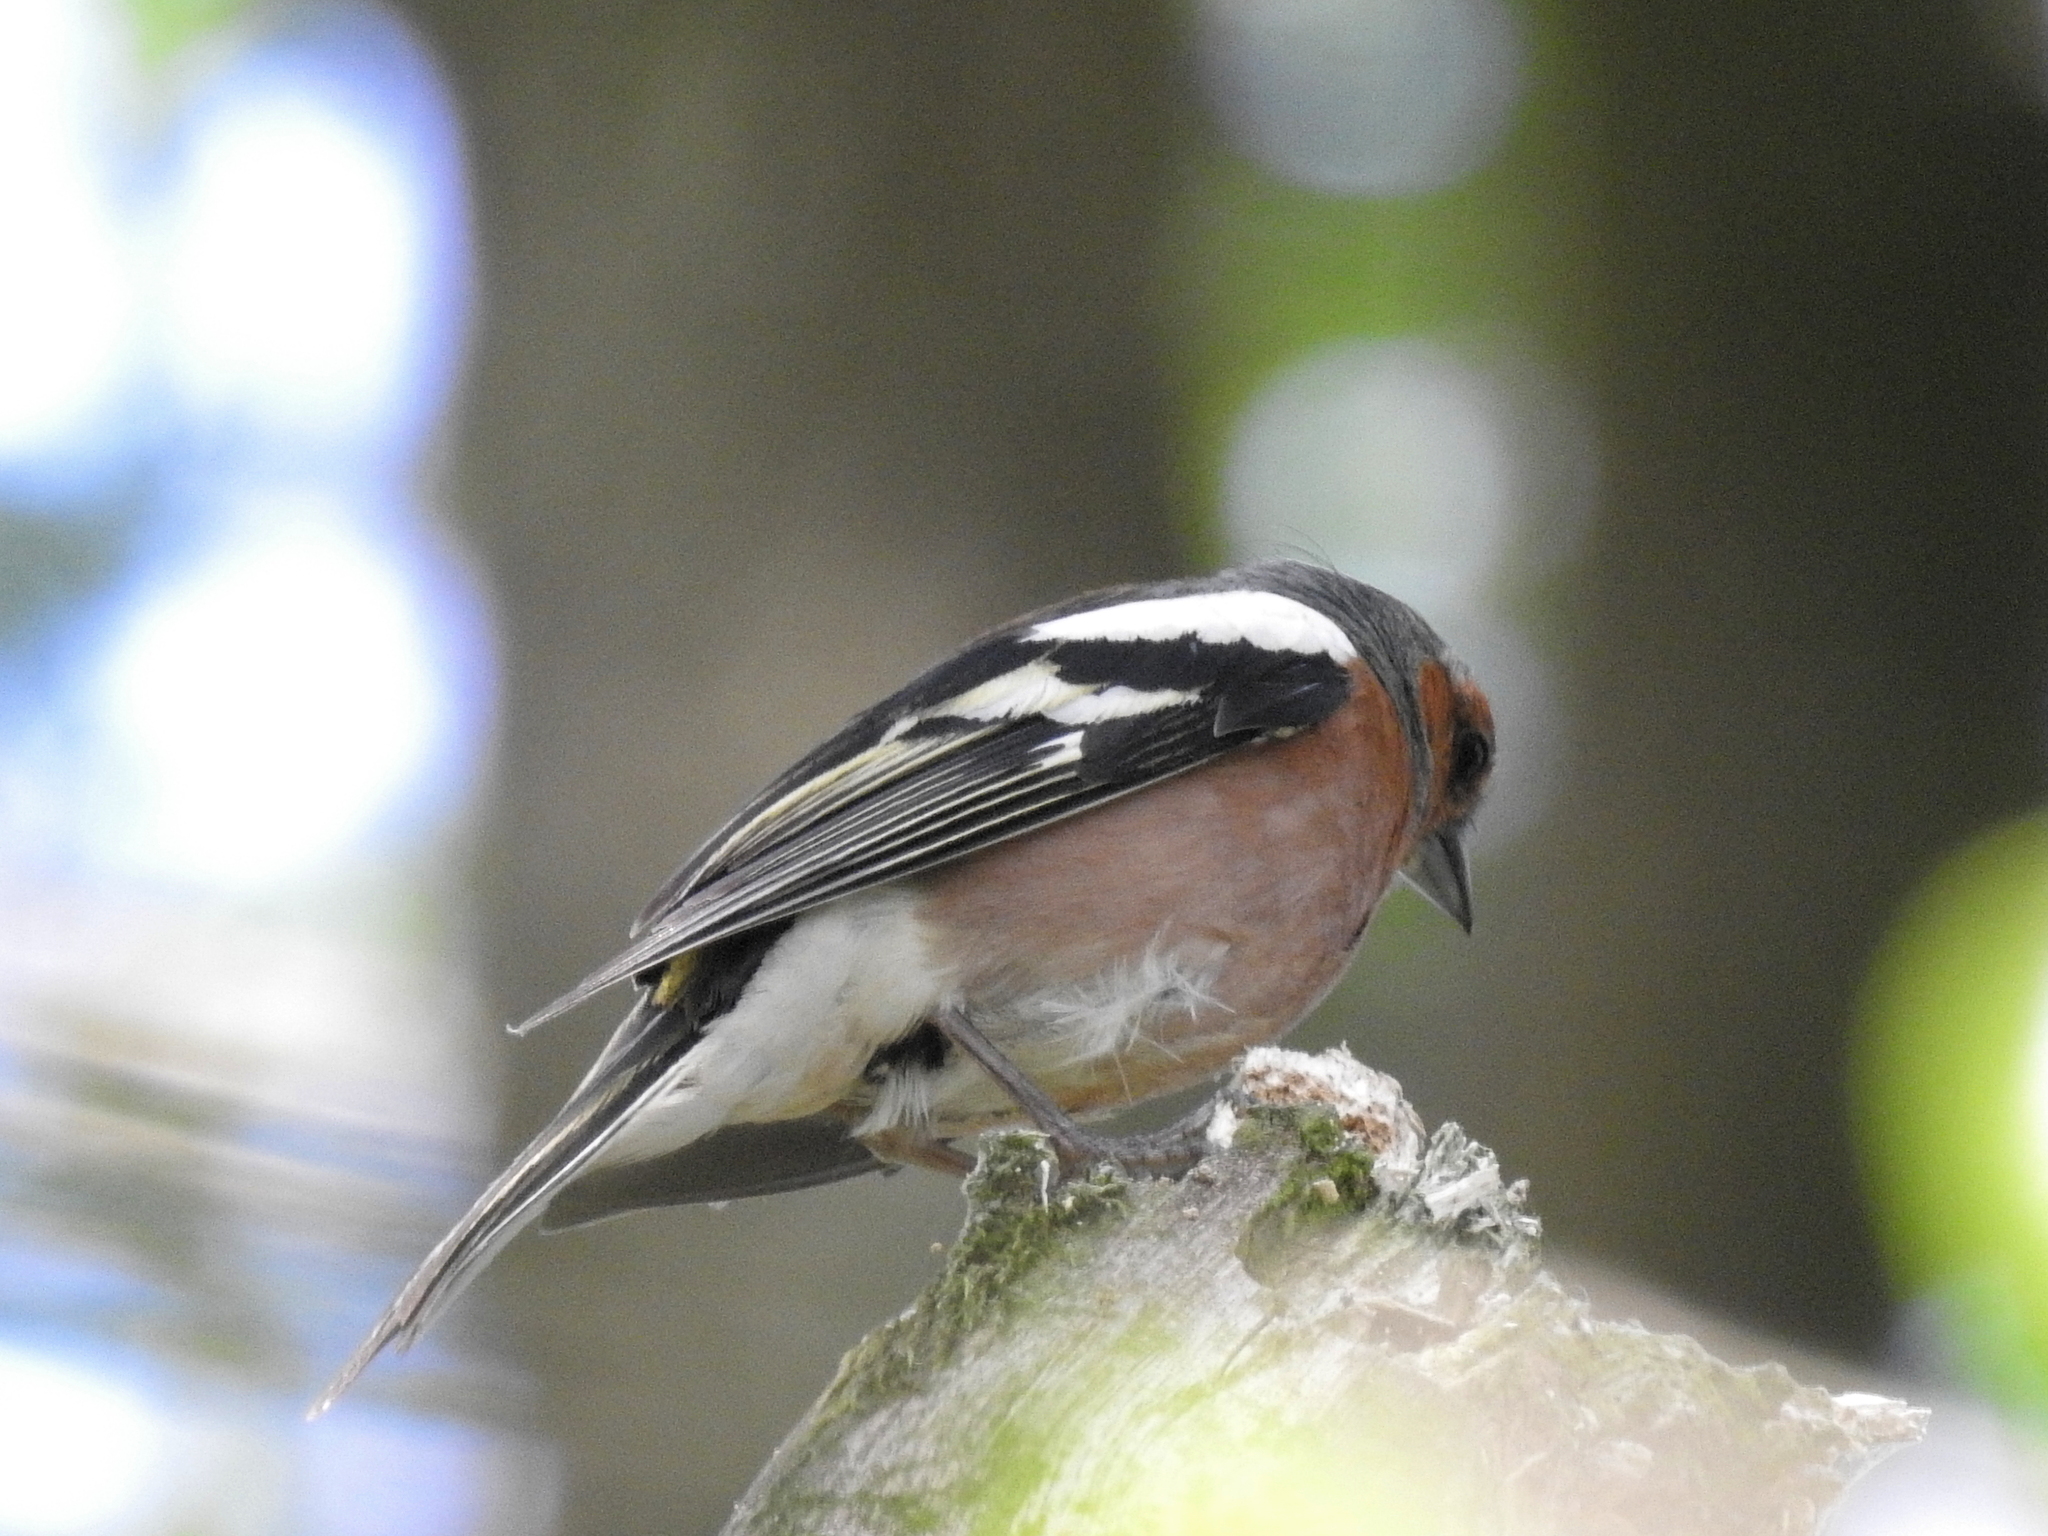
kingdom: Animalia
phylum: Chordata
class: Aves
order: Passeriformes
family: Fringillidae
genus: Fringilla
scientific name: Fringilla coelebs
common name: Common chaffinch
